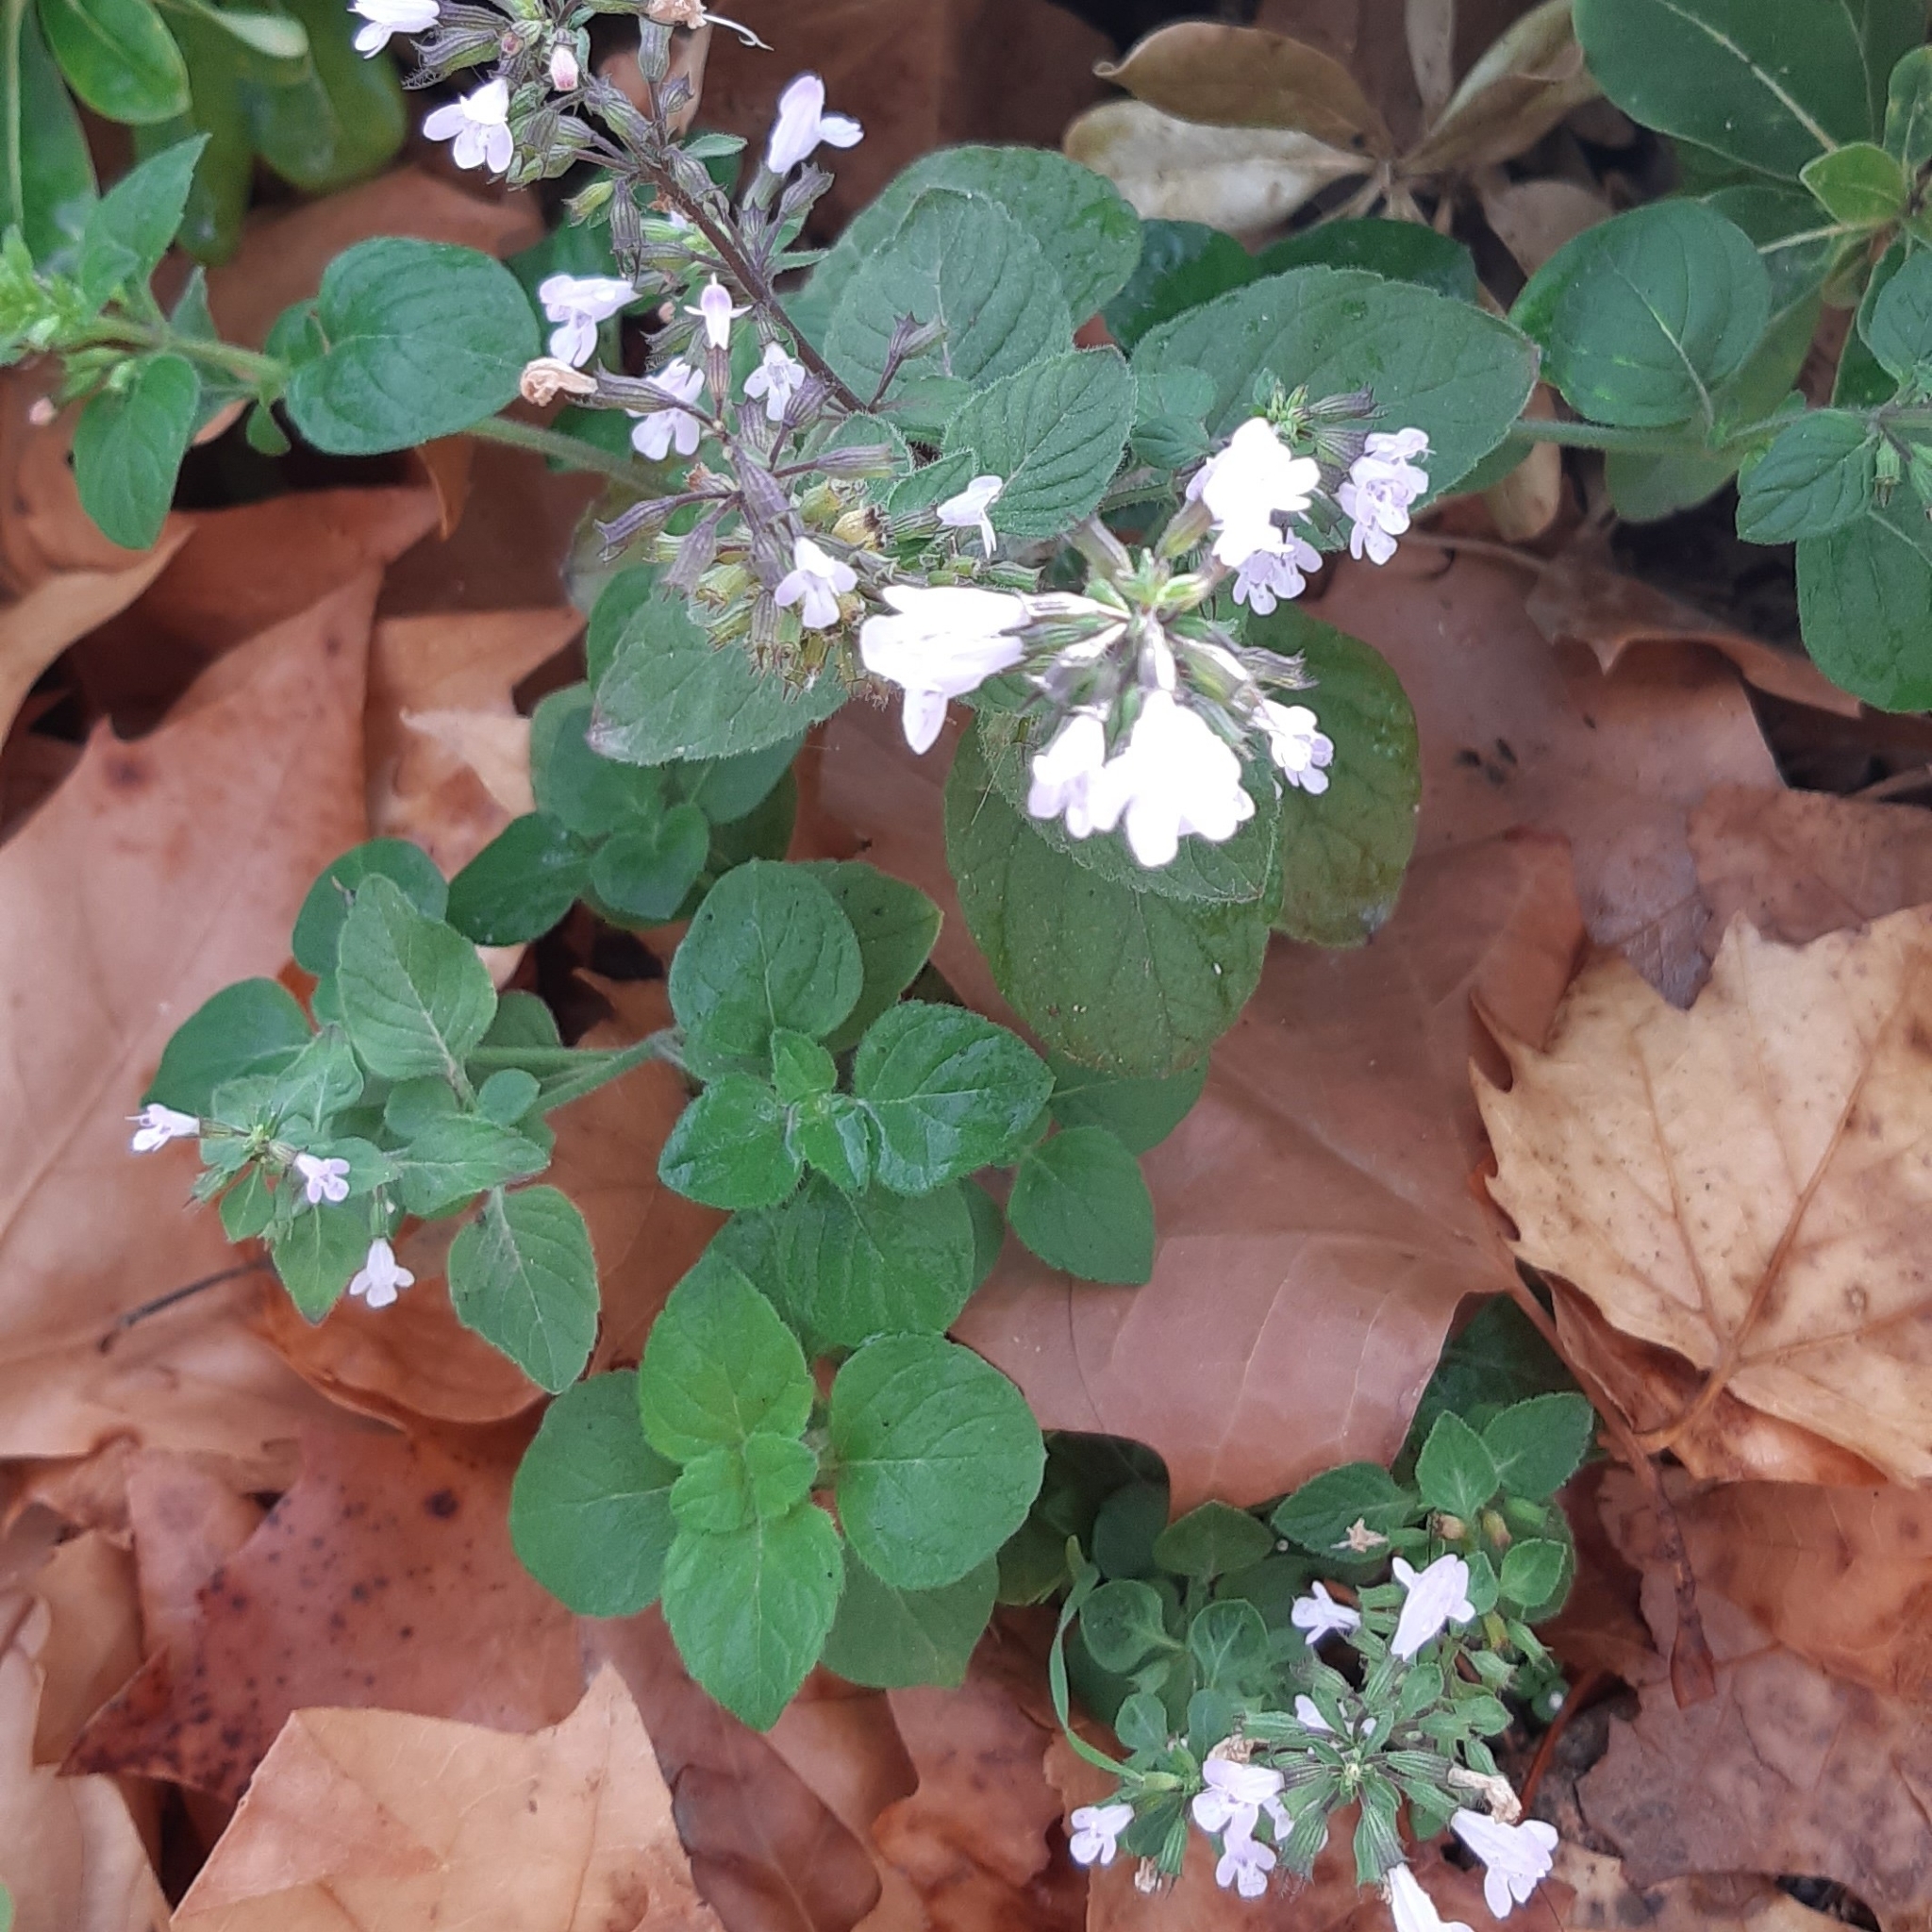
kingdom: Plantae
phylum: Tracheophyta
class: Magnoliopsida
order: Lamiales
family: Lamiaceae
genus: Clinopodium
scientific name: Clinopodium nepeta
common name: Lesser calamint
